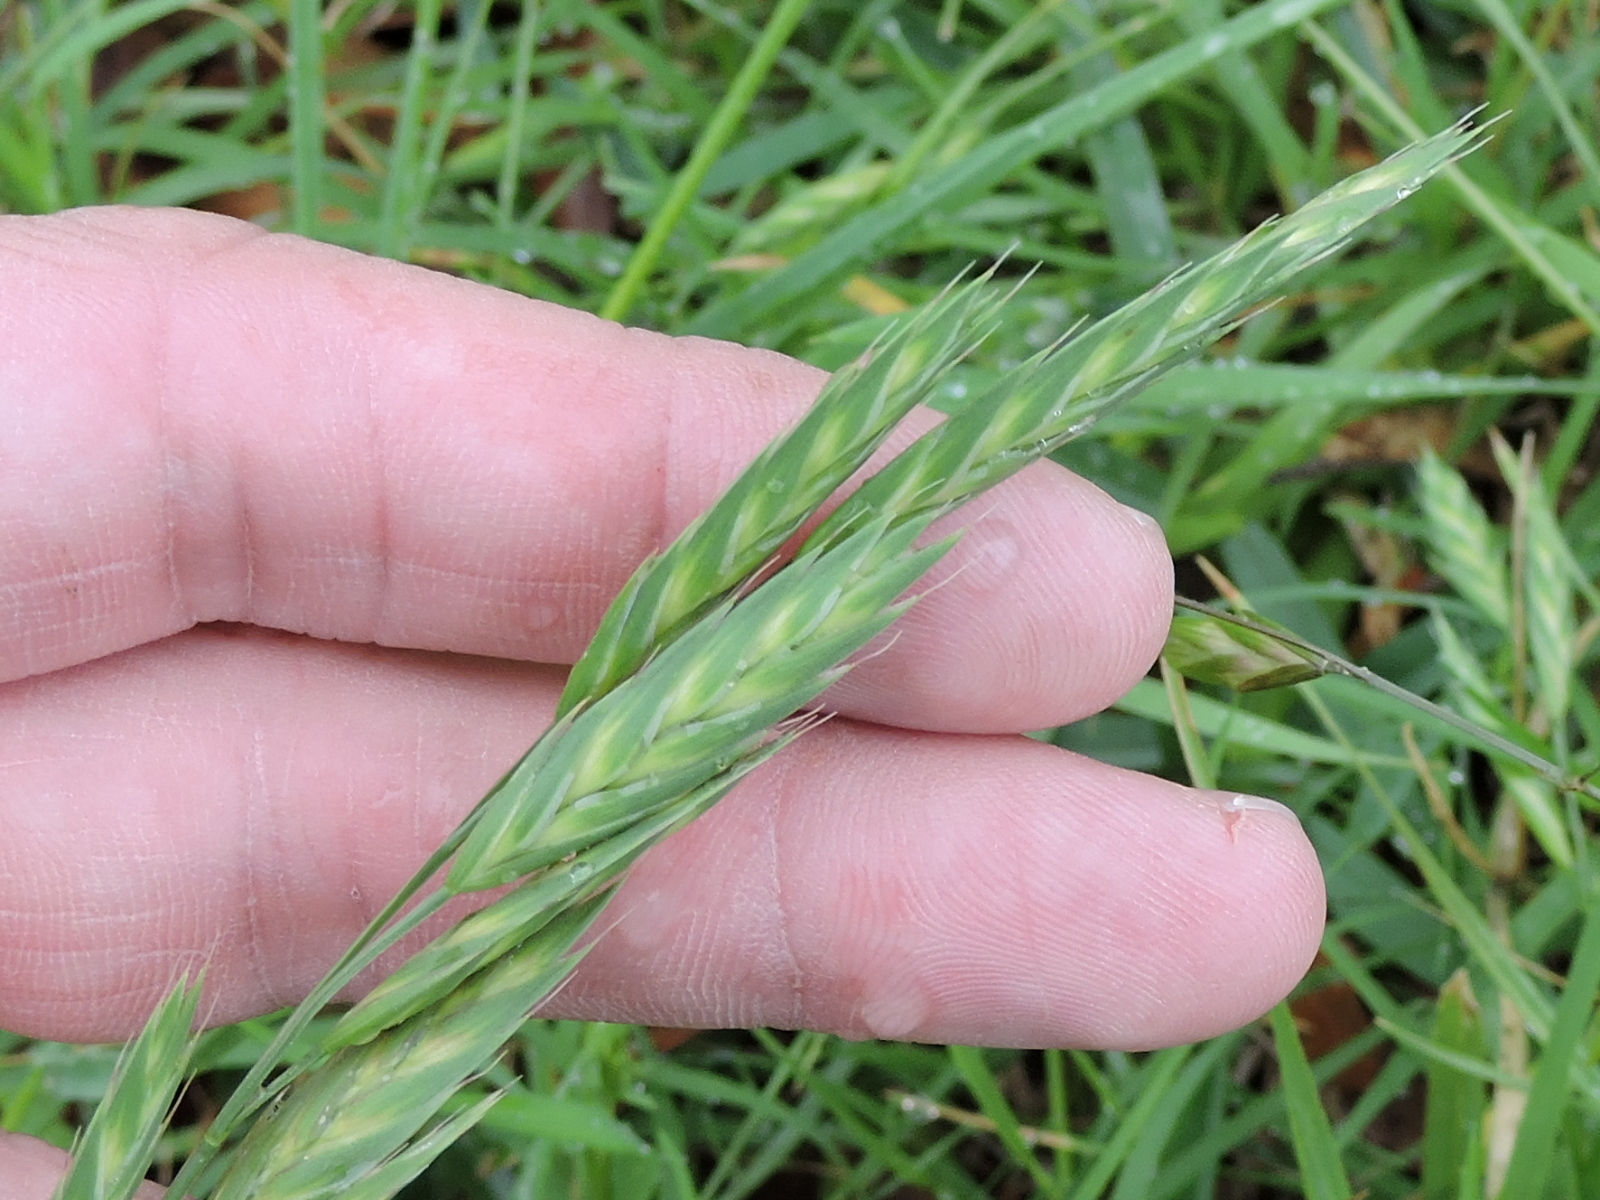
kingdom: Plantae
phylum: Tracheophyta
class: Liliopsida
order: Poales
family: Poaceae
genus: Bromus
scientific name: Bromus catharticus
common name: Rescuegrass
